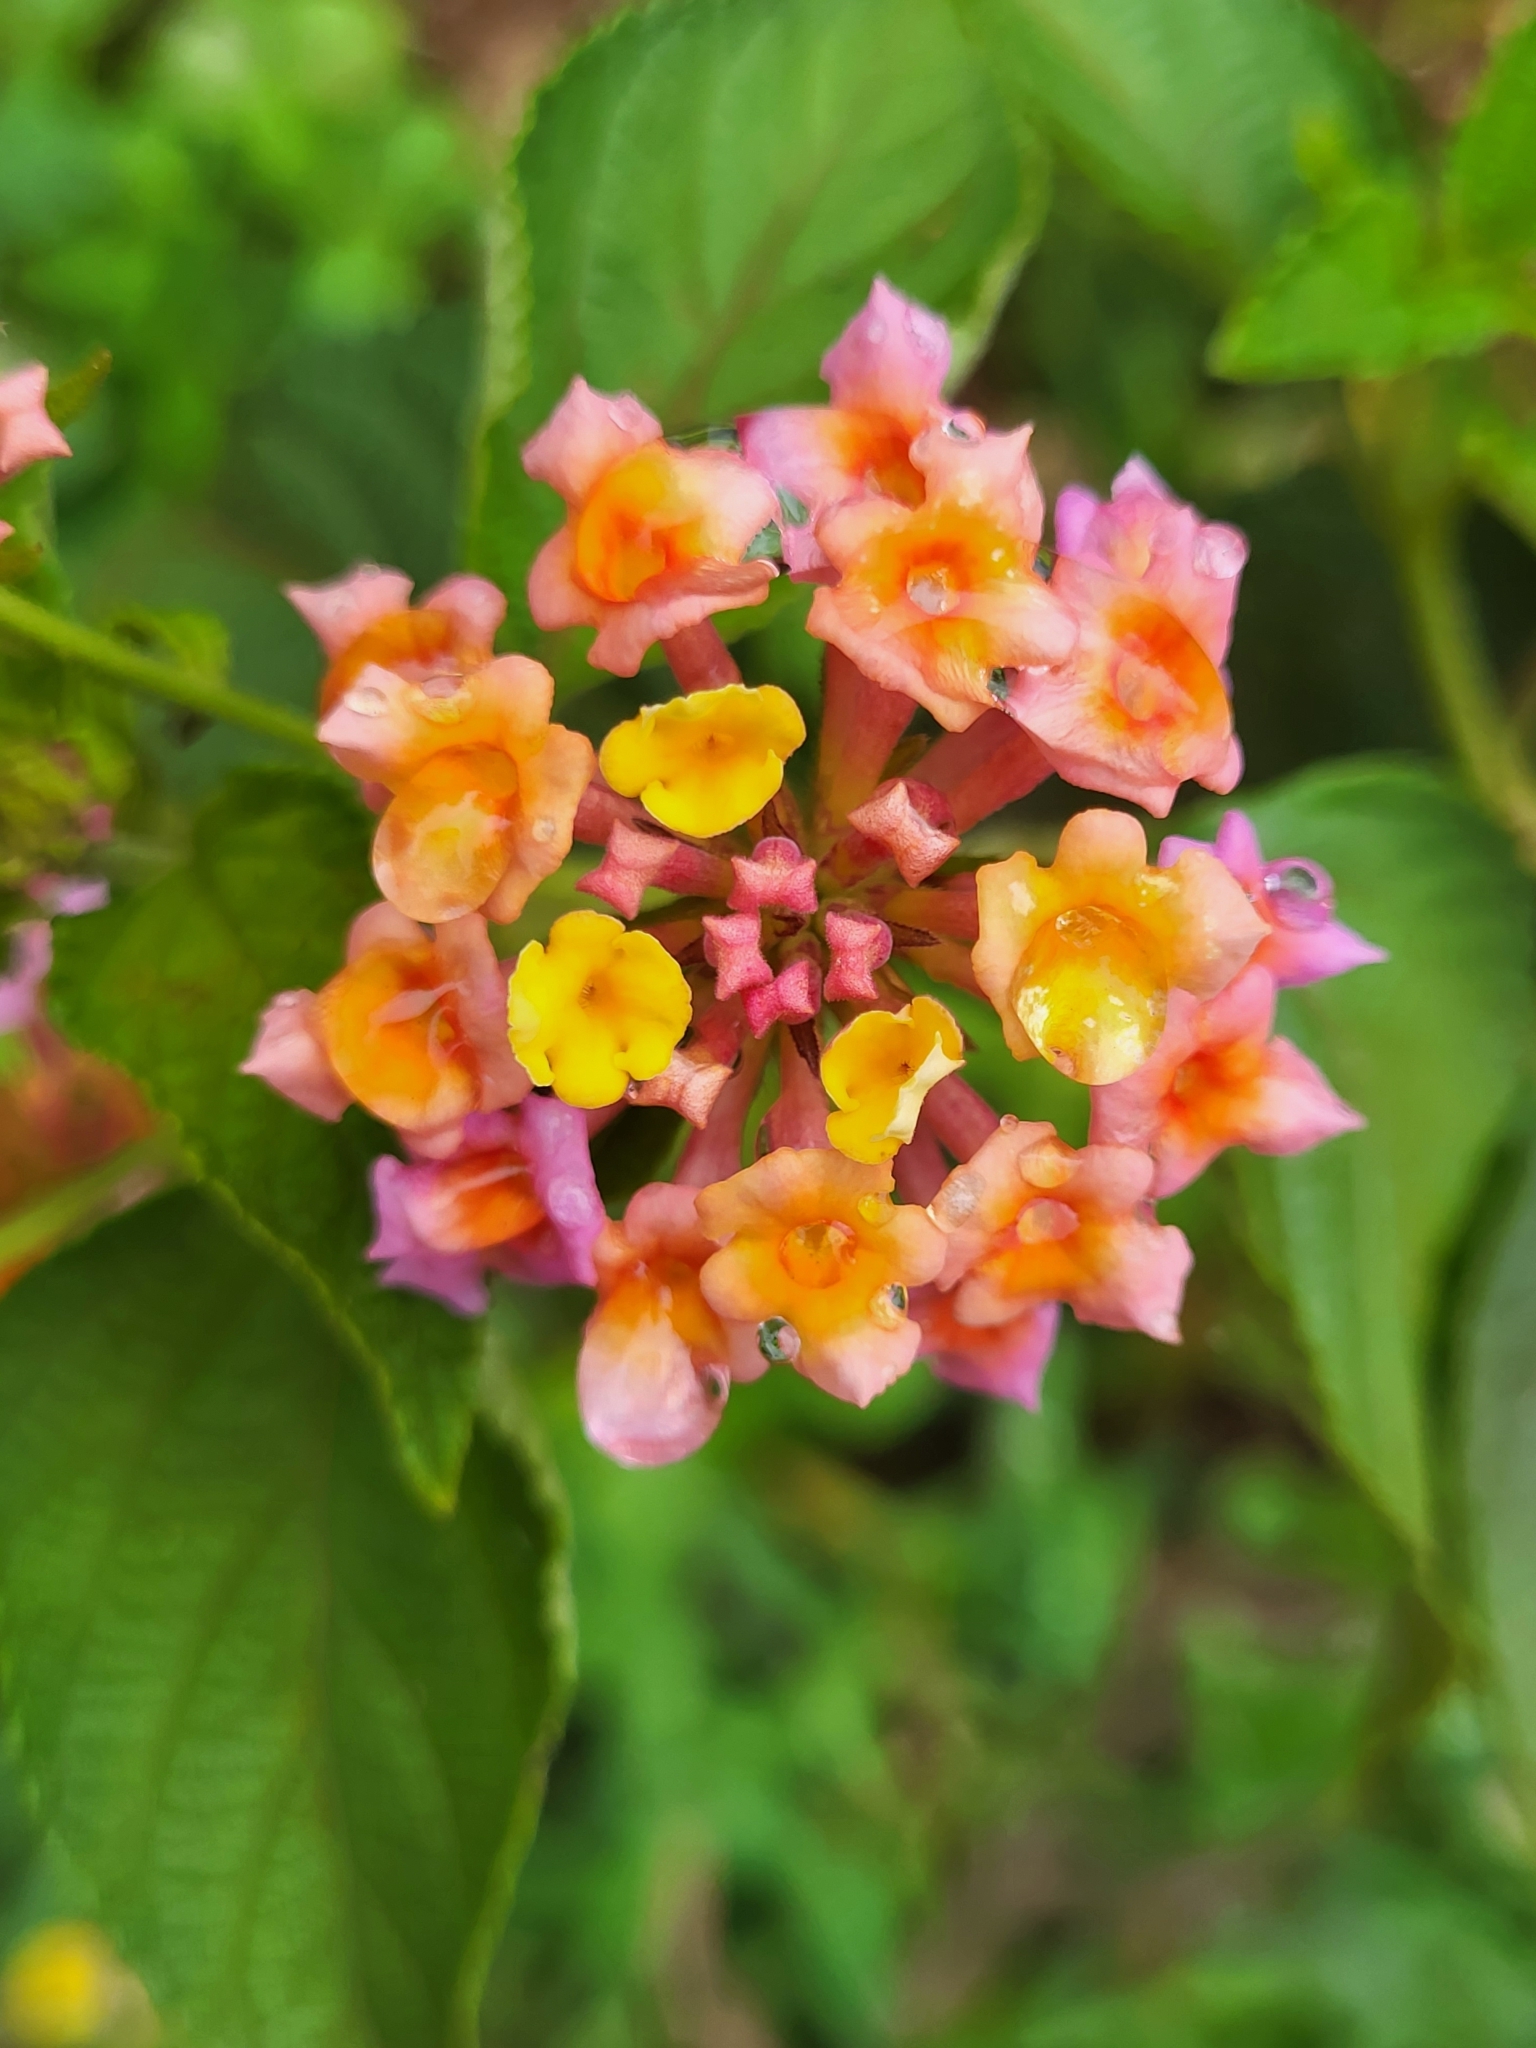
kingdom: Plantae
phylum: Tracheophyta
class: Magnoliopsida
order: Lamiales
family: Verbenaceae
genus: Lantana
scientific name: Lantana camara
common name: Lantana
